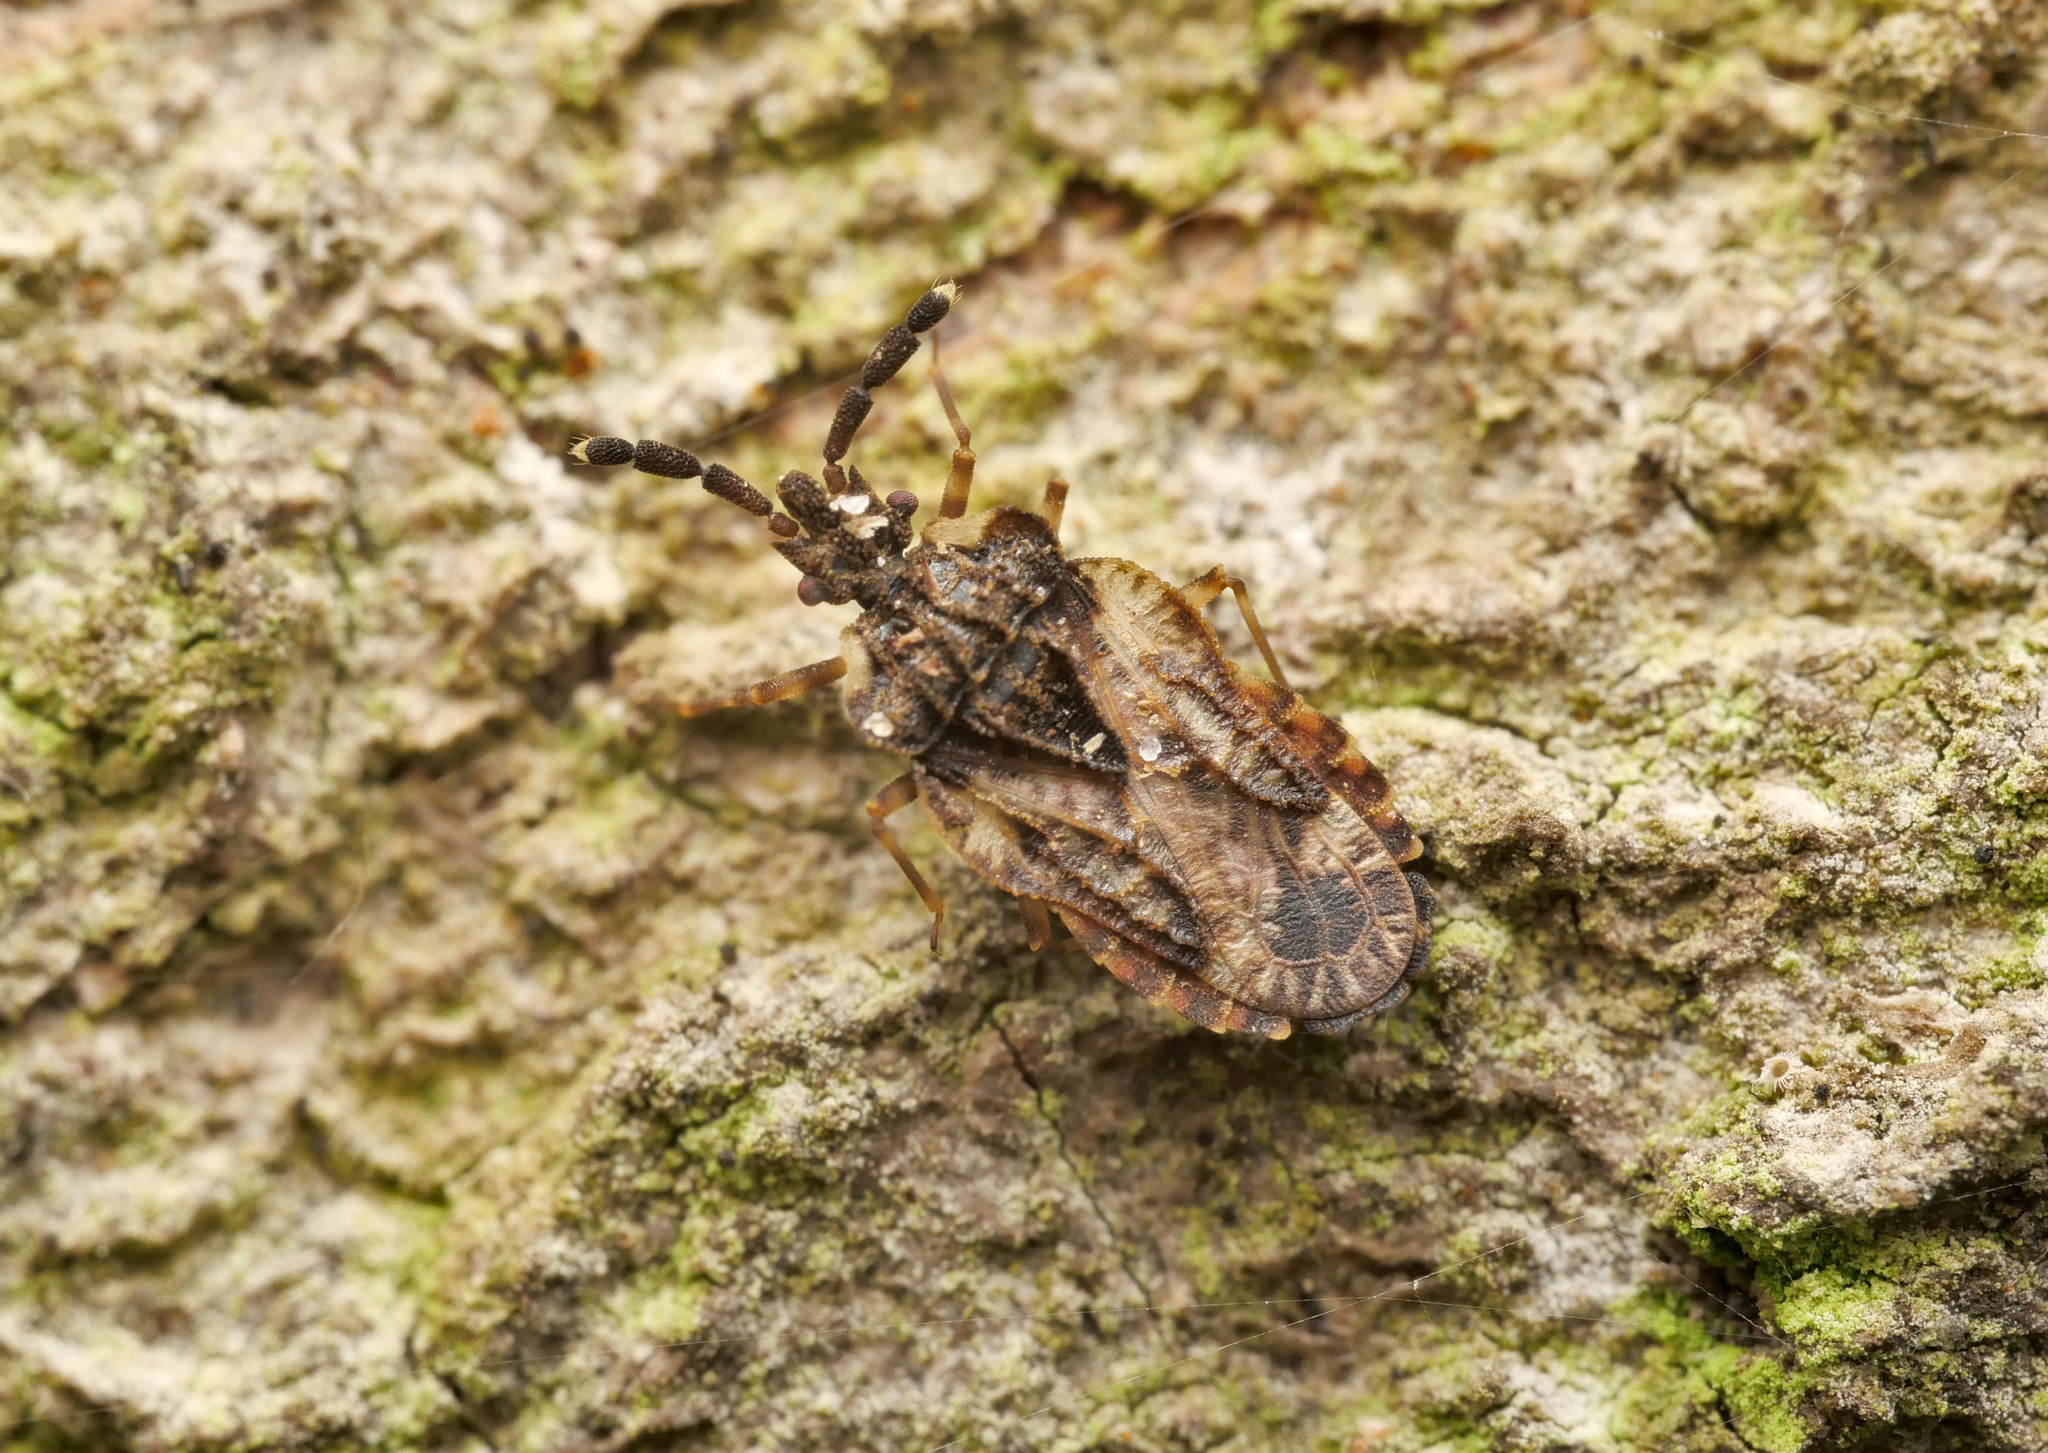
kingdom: Animalia
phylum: Arthropoda
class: Insecta
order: Hemiptera
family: Aradidae
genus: Aradus
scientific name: Aradus depressus
